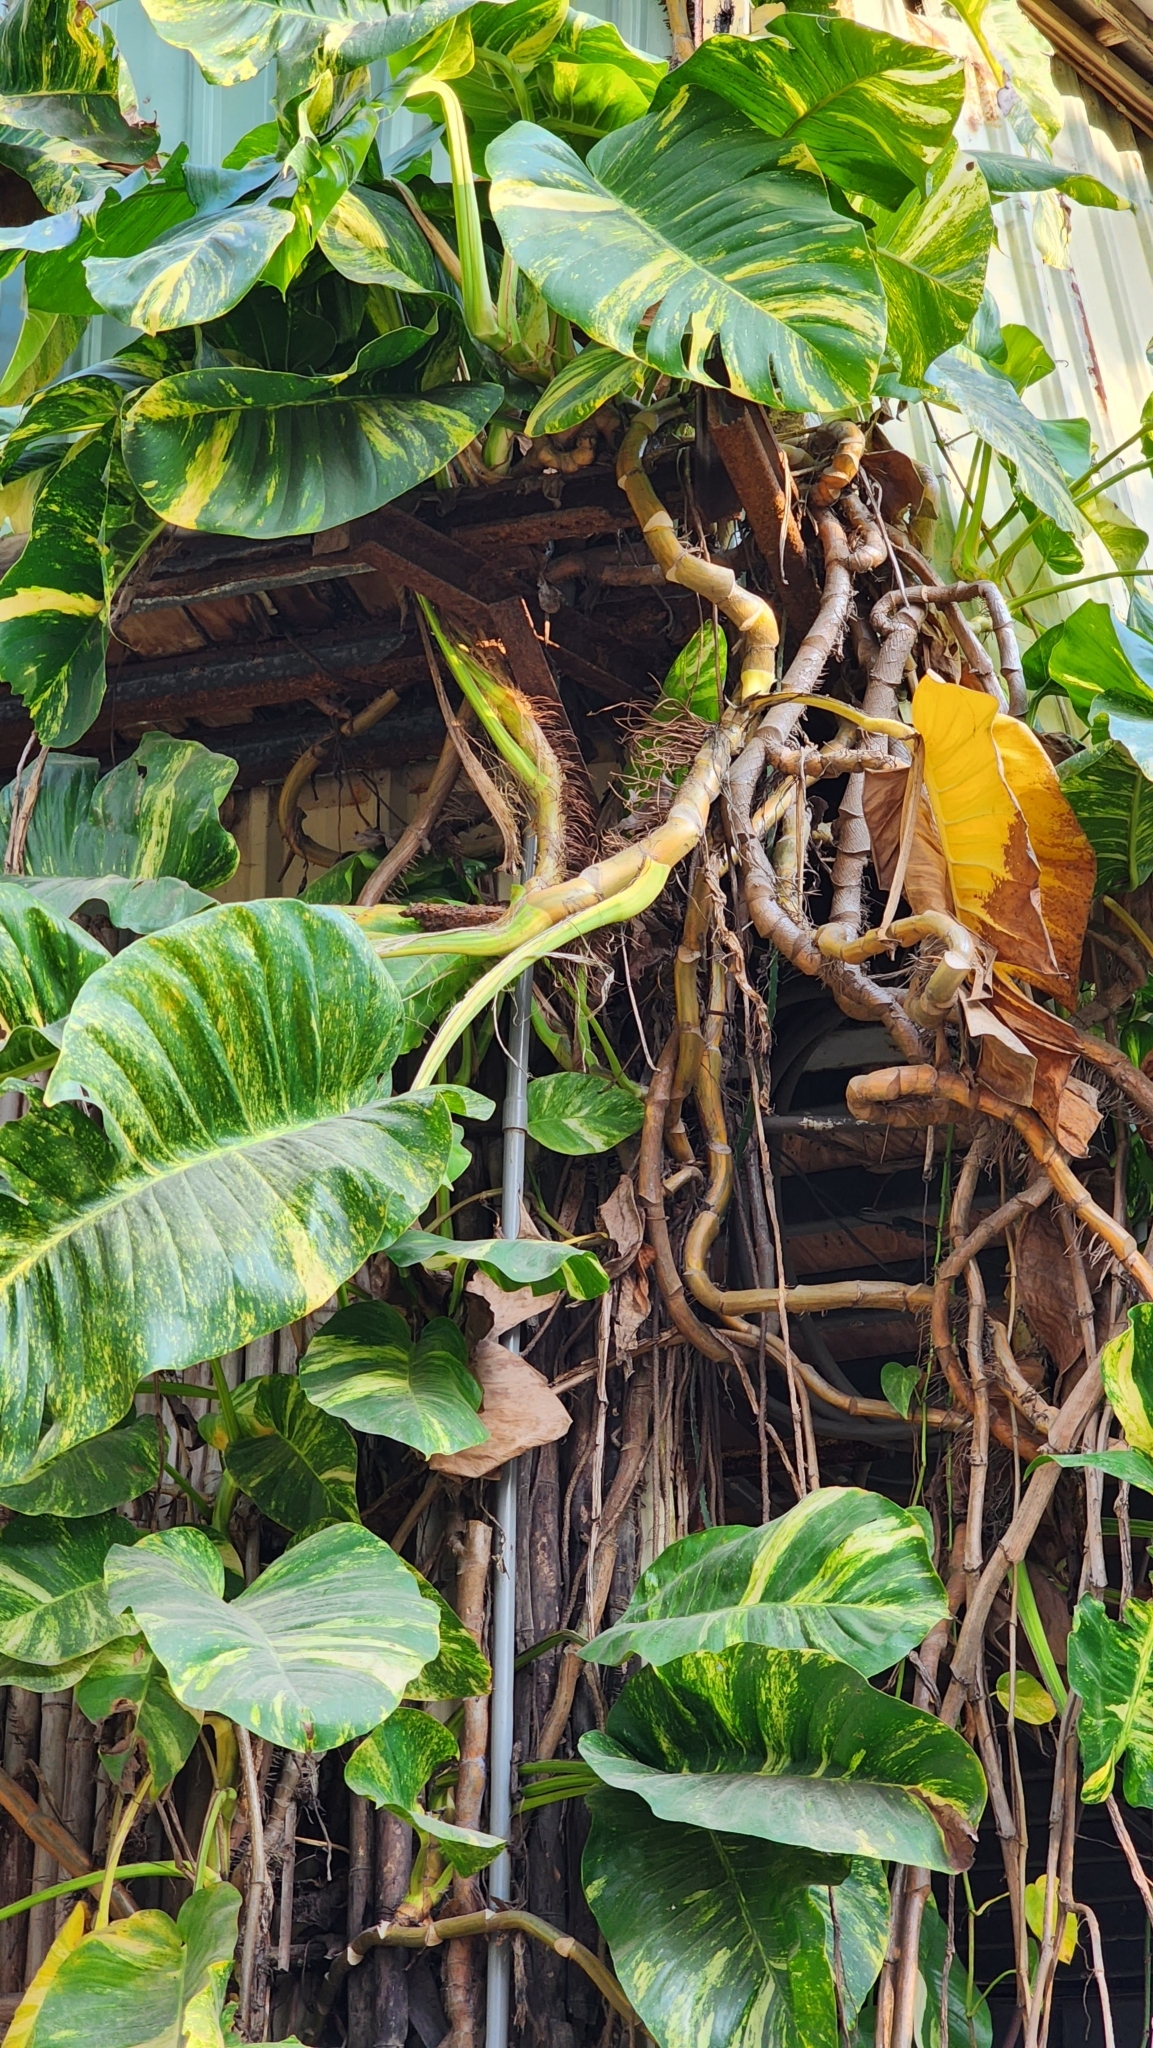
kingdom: Plantae
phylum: Tracheophyta
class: Liliopsida
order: Alismatales
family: Araceae
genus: Epipremnum
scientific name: Epipremnum aureum
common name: Golden hunter's-robe
